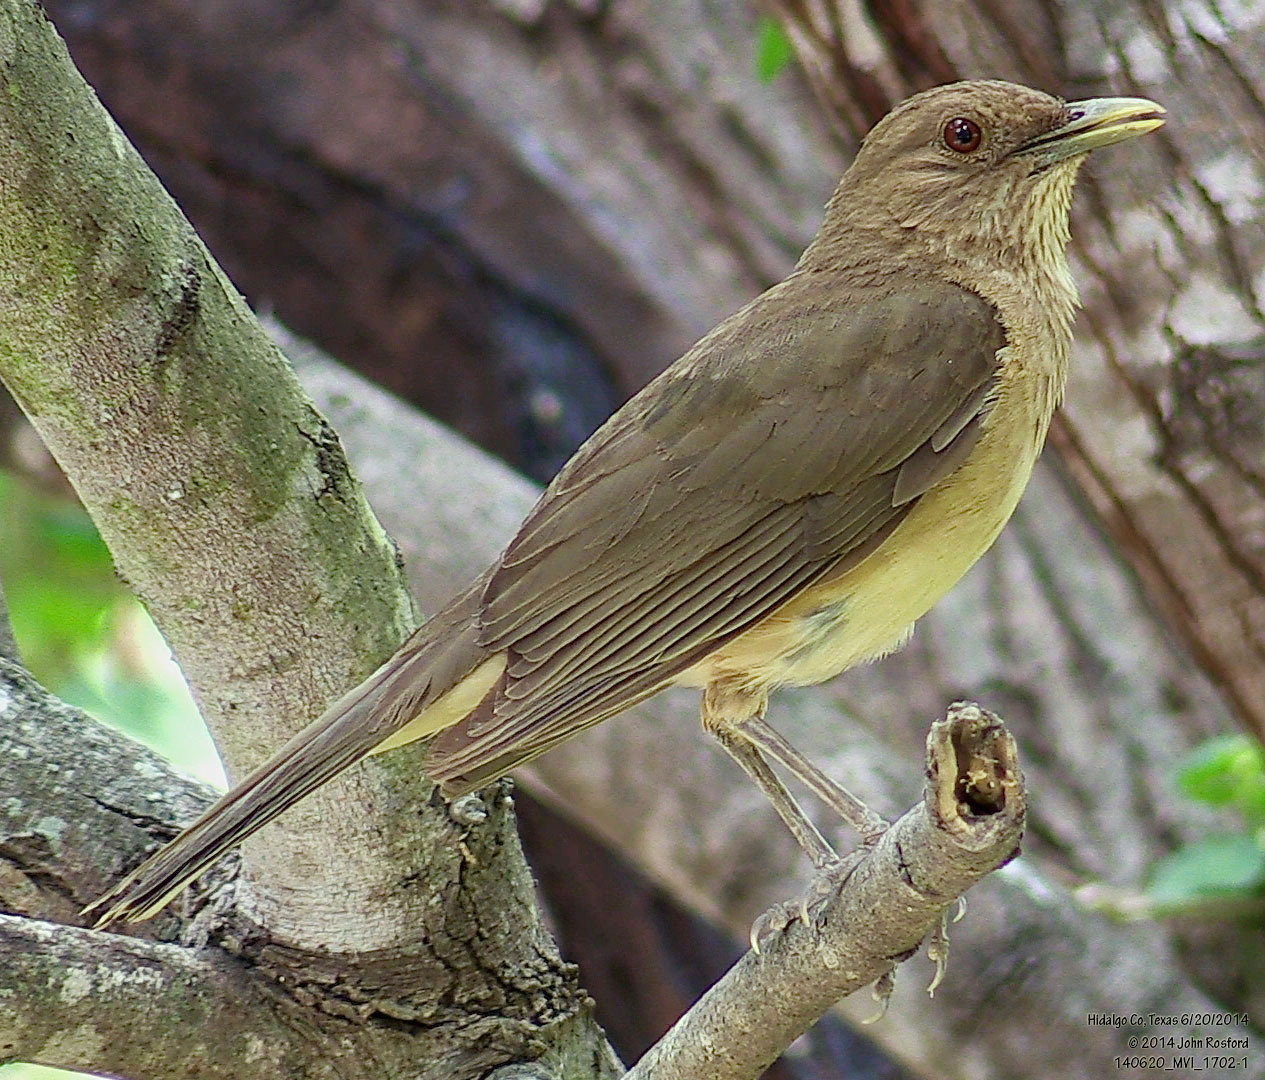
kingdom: Animalia
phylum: Chordata
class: Aves
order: Passeriformes
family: Turdidae
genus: Turdus
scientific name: Turdus grayi
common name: Clay-colored thrush
